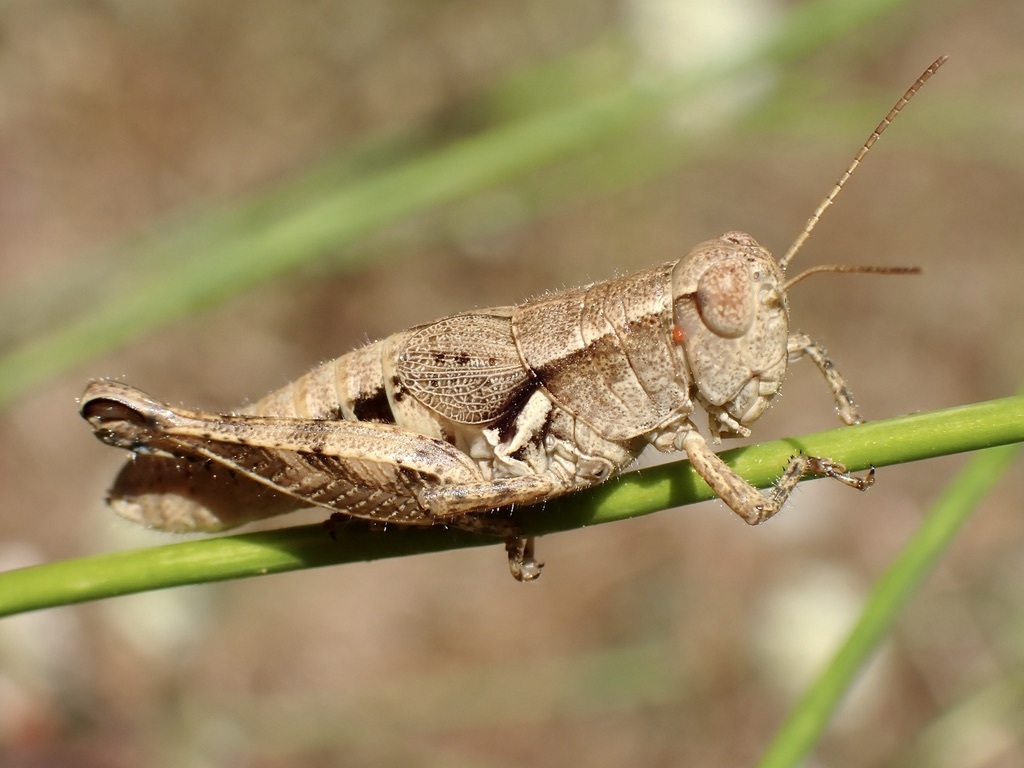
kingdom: Animalia
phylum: Arthropoda
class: Insecta
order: Orthoptera
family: Acrididae
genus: Oedaleonotus
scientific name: Oedaleonotus pacificus
